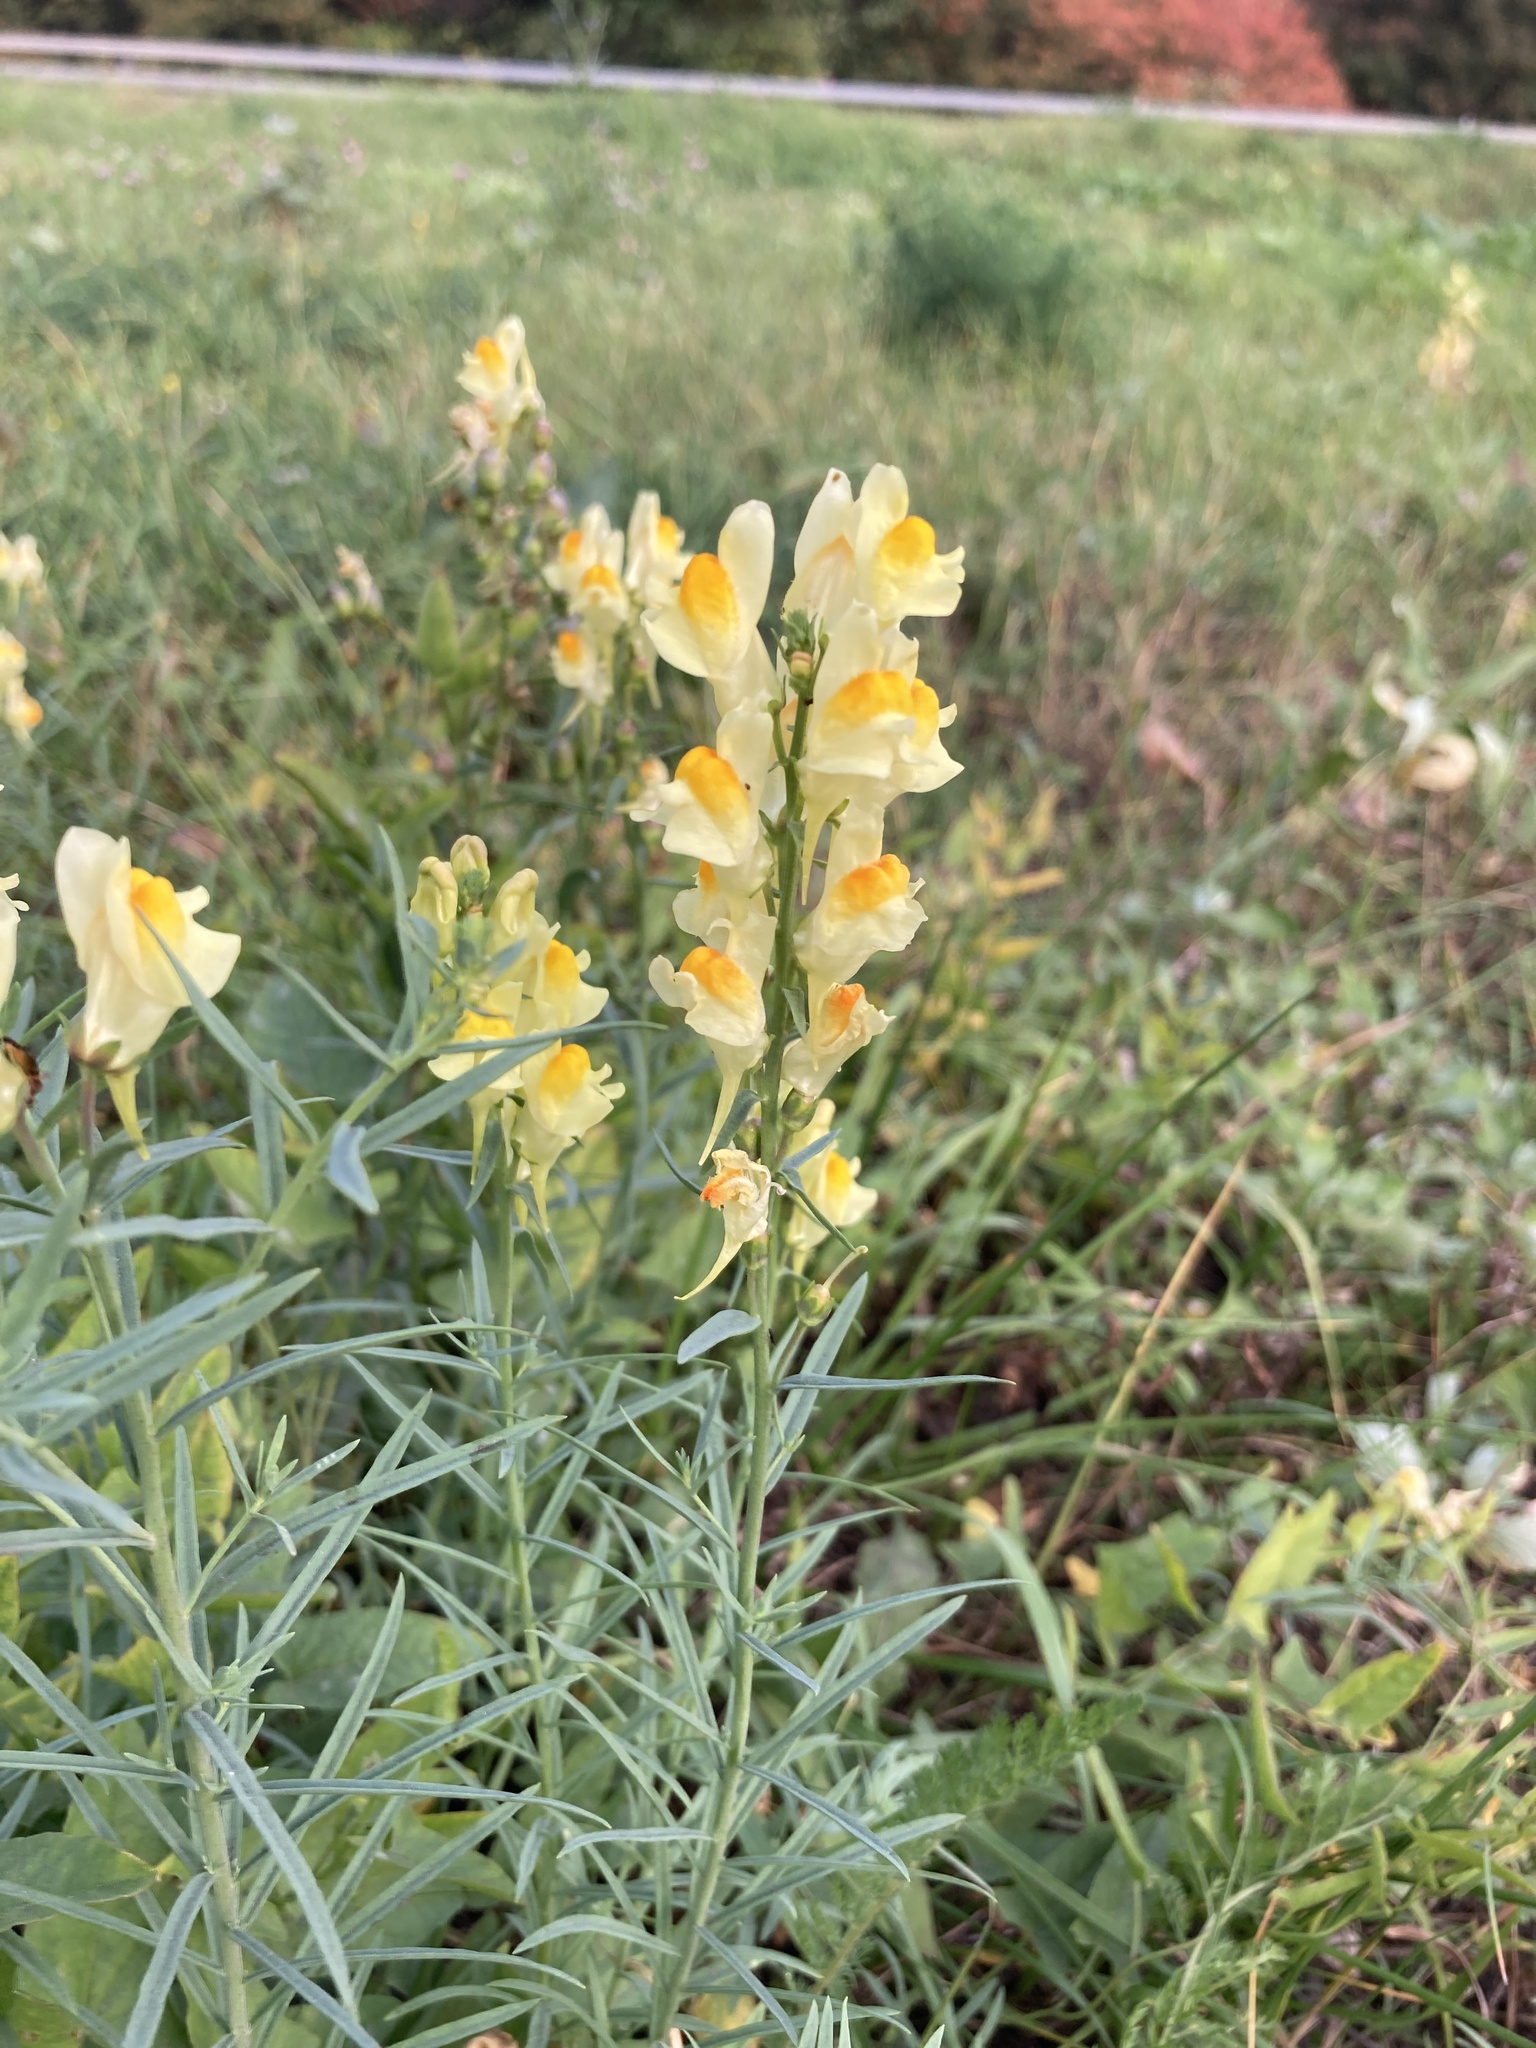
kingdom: Plantae
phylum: Tracheophyta
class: Magnoliopsida
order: Lamiales
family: Plantaginaceae
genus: Linaria
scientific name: Linaria vulgaris
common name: Butter and eggs
